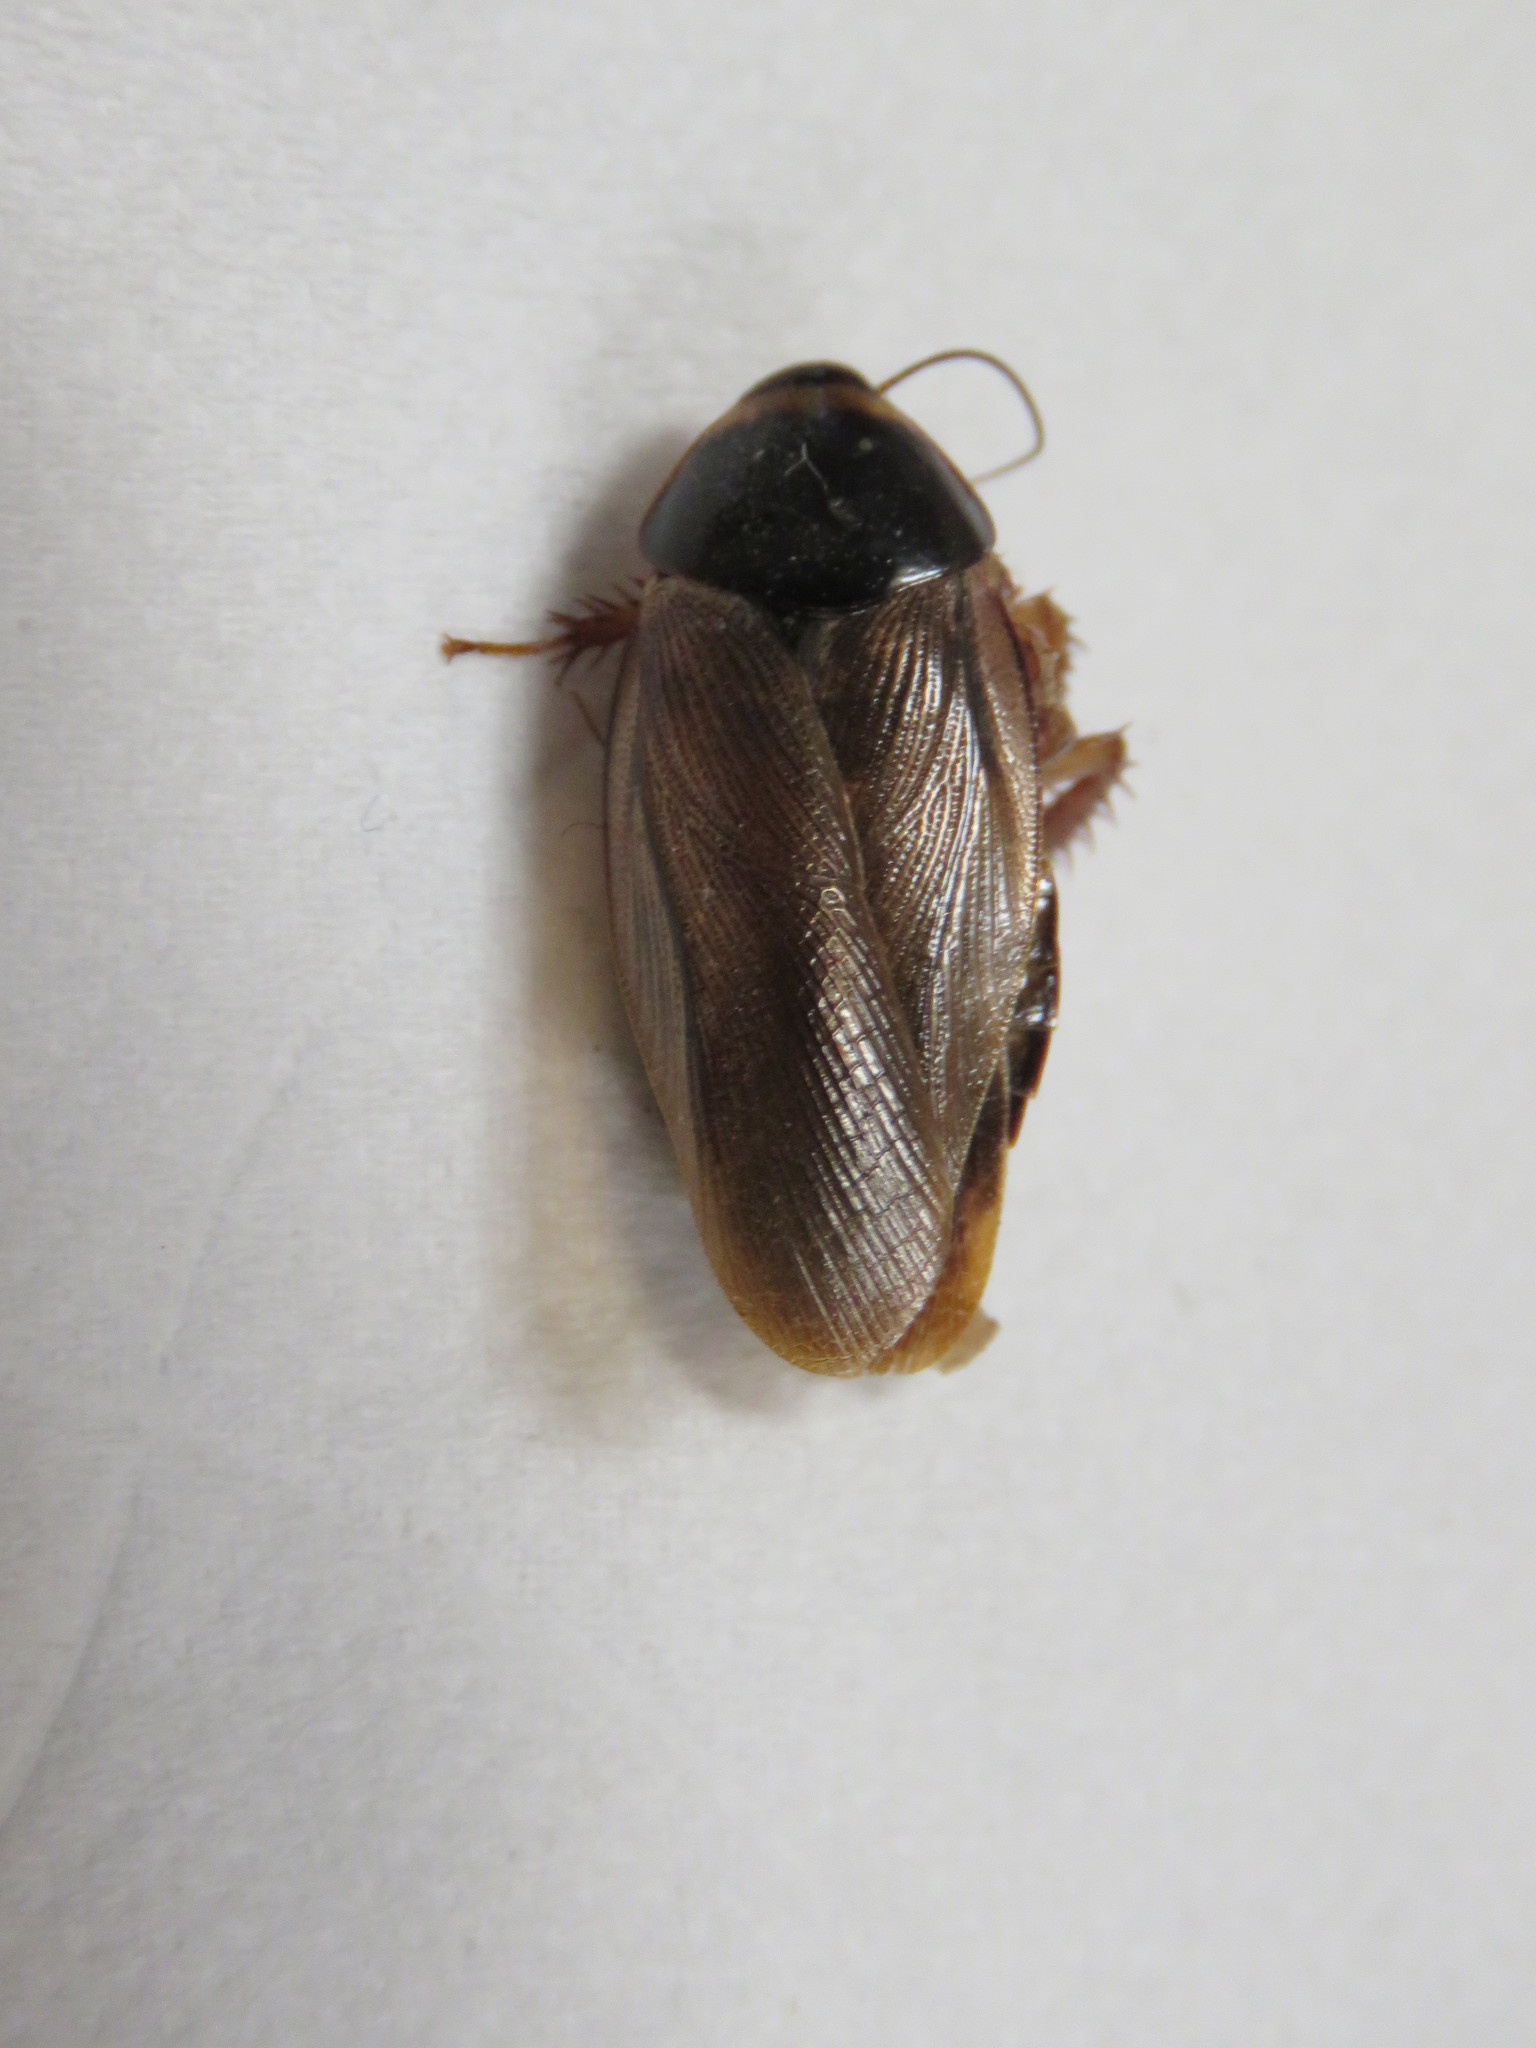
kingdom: Animalia
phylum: Arthropoda
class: Insecta
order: Blattodea
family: Blaberidae
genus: Pycnoscelus
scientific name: Pycnoscelus surinamensis
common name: Surinam cockroach
